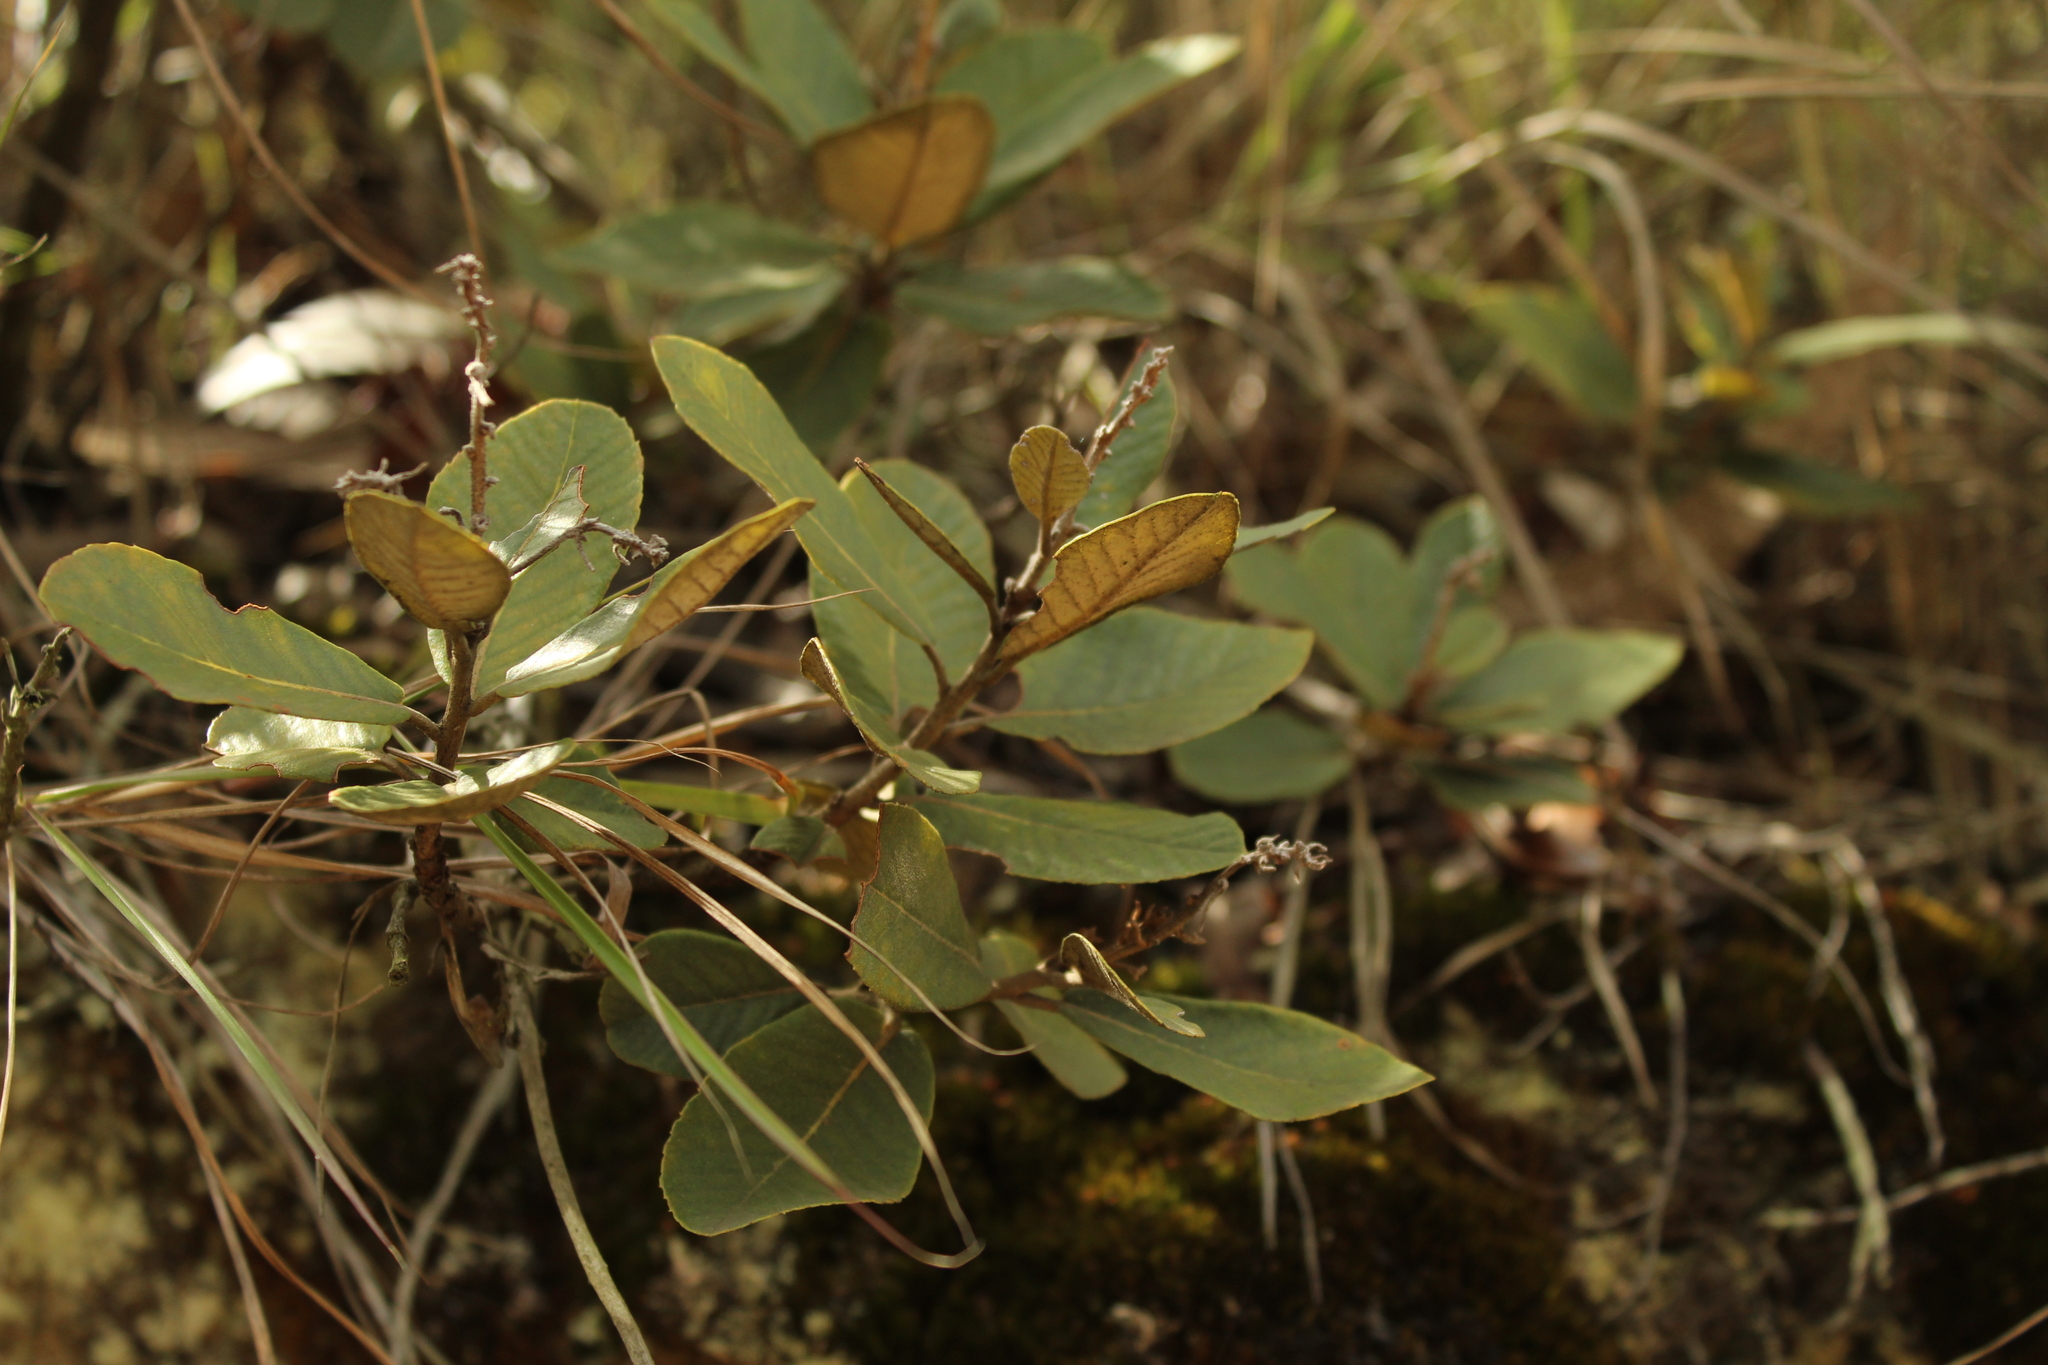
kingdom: Plantae
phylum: Tracheophyta
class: Magnoliopsida
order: Ericales
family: Clethraceae
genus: Clethra
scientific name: Clethra fimbriata
